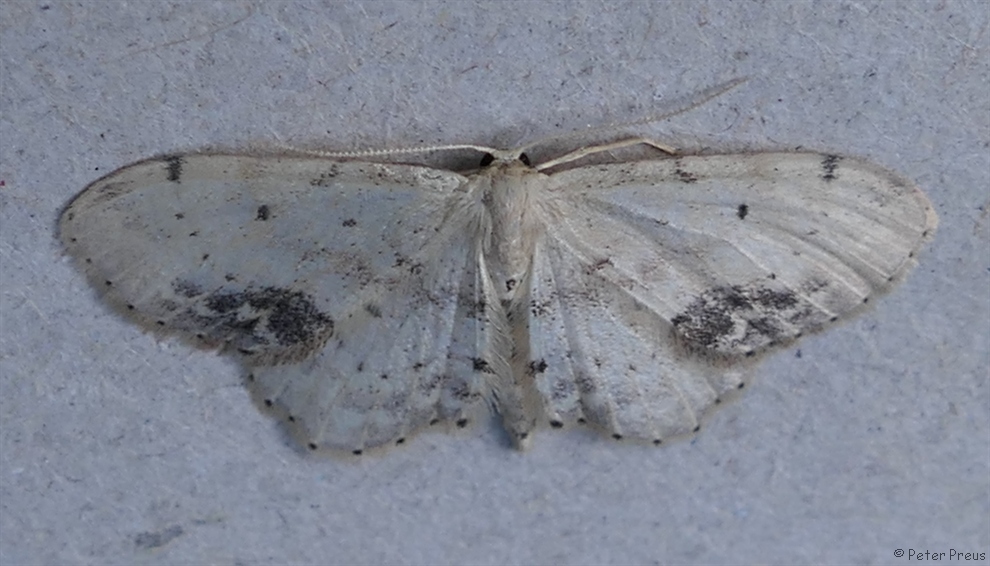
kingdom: Animalia
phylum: Arthropoda
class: Insecta
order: Lepidoptera
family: Geometridae
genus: Idaea
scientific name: Idaea dimidiata
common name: Single-dotted wave
